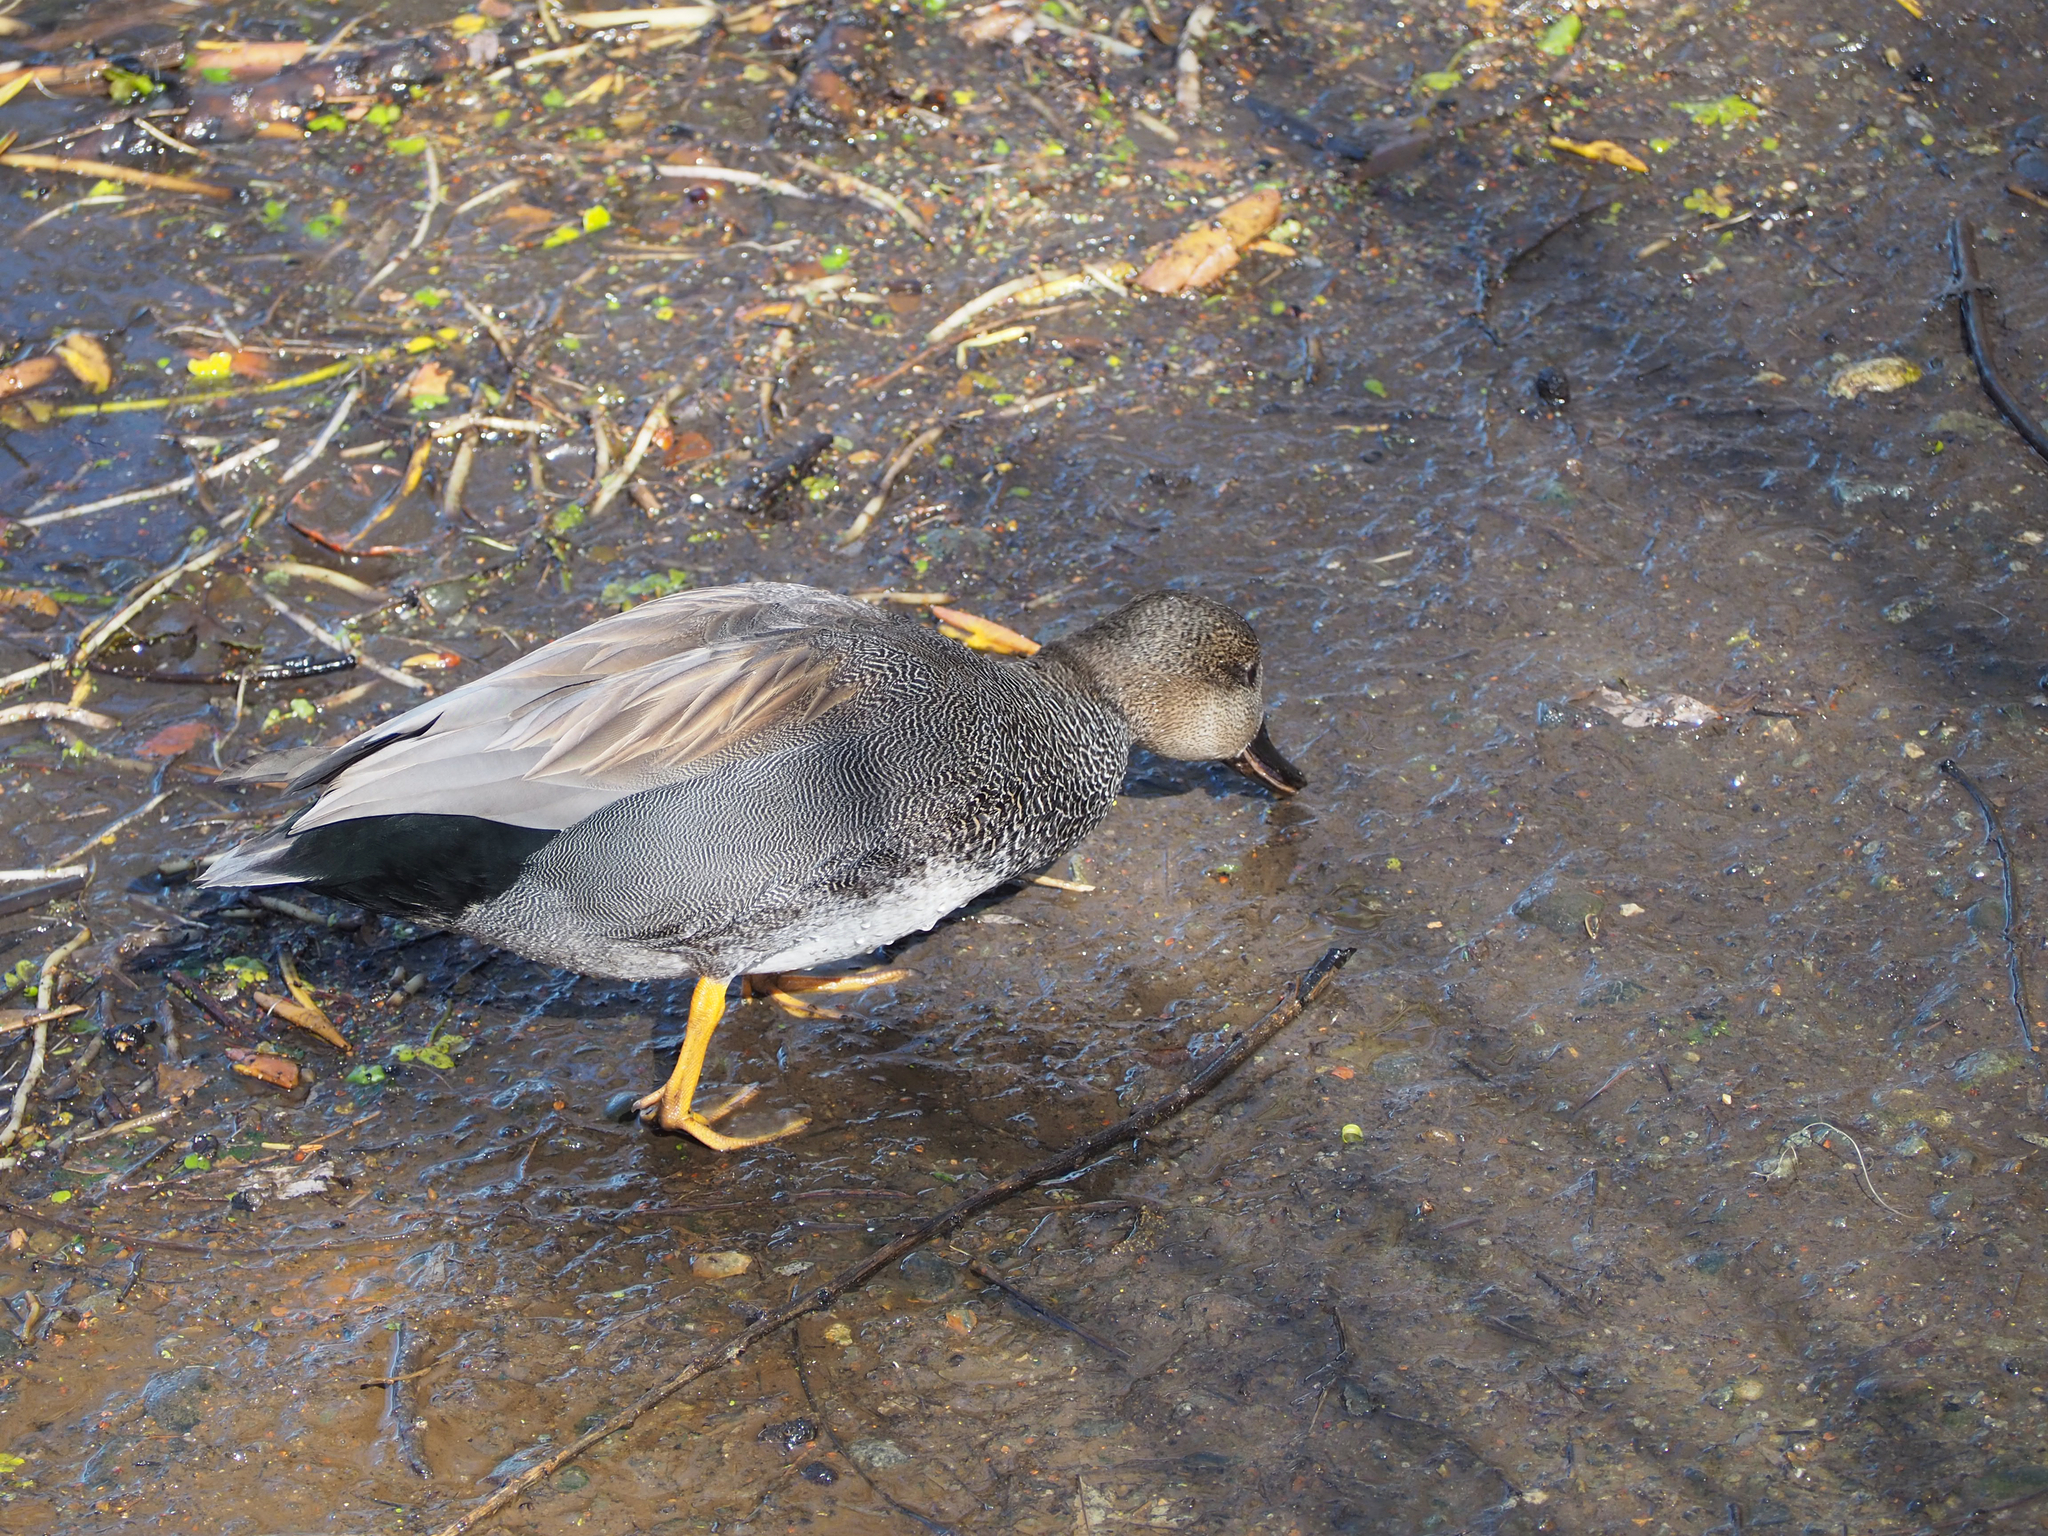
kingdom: Animalia
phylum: Chordata
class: Aves
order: Anseriformes
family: Anatidae
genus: Mareca
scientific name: Mareca strepera
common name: Gadwall
